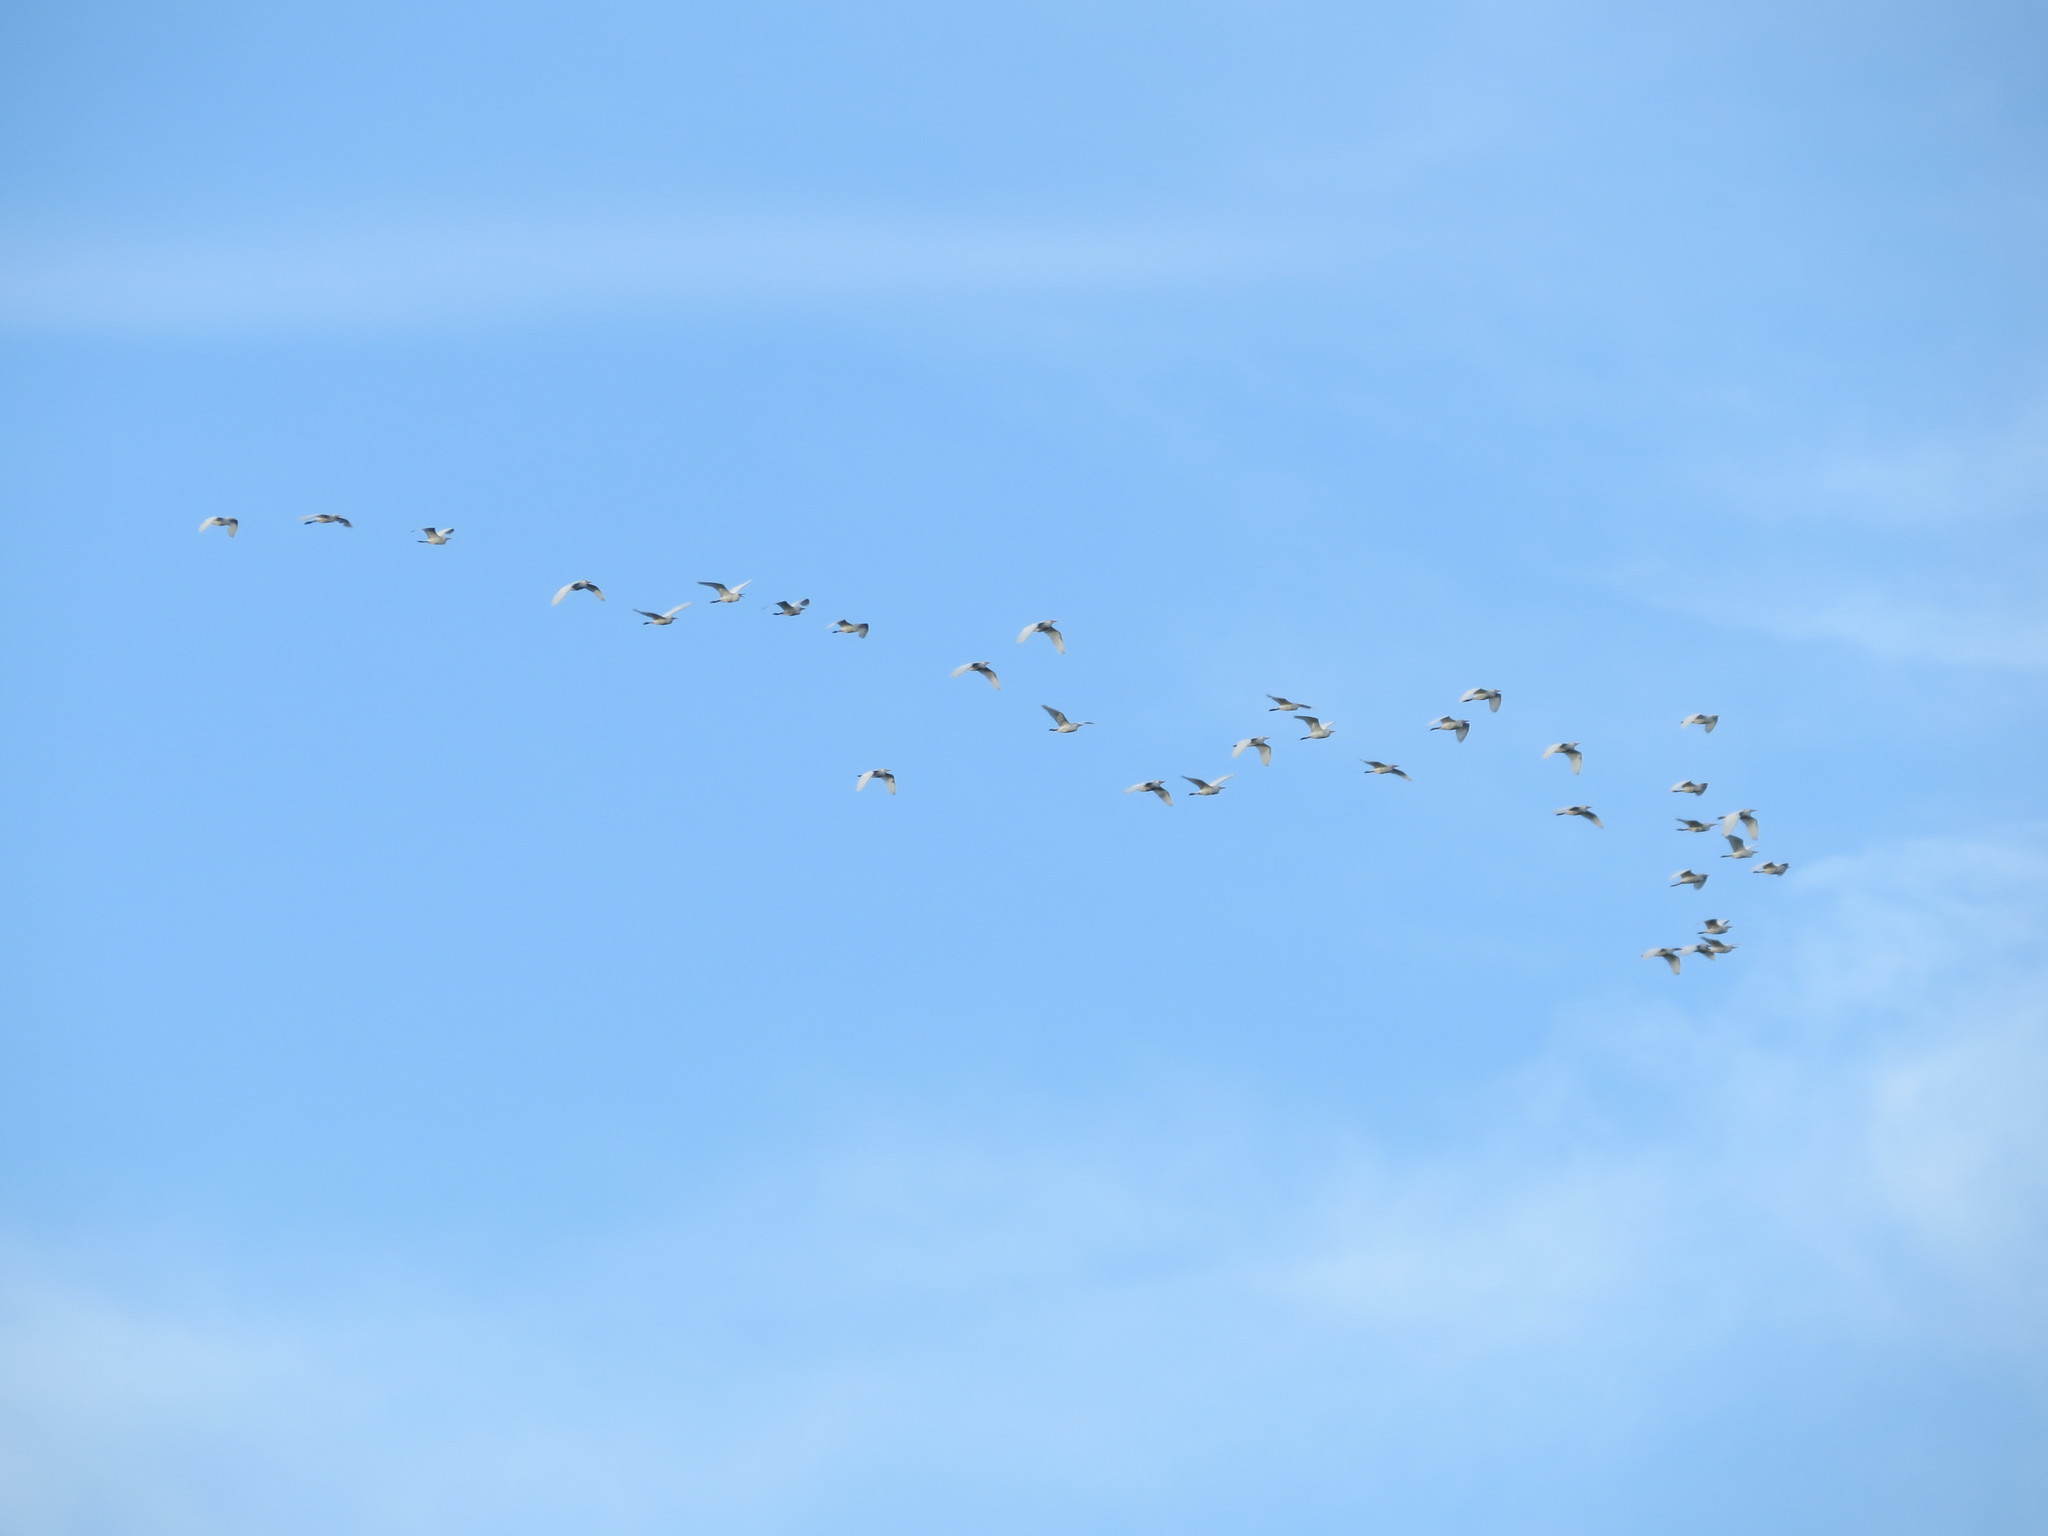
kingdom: Animalia
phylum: Chordata
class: Aves
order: Pelecaniformes
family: Ardeidae
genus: Bubulcus
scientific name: Bubulcus ibis
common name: Cattle egret
